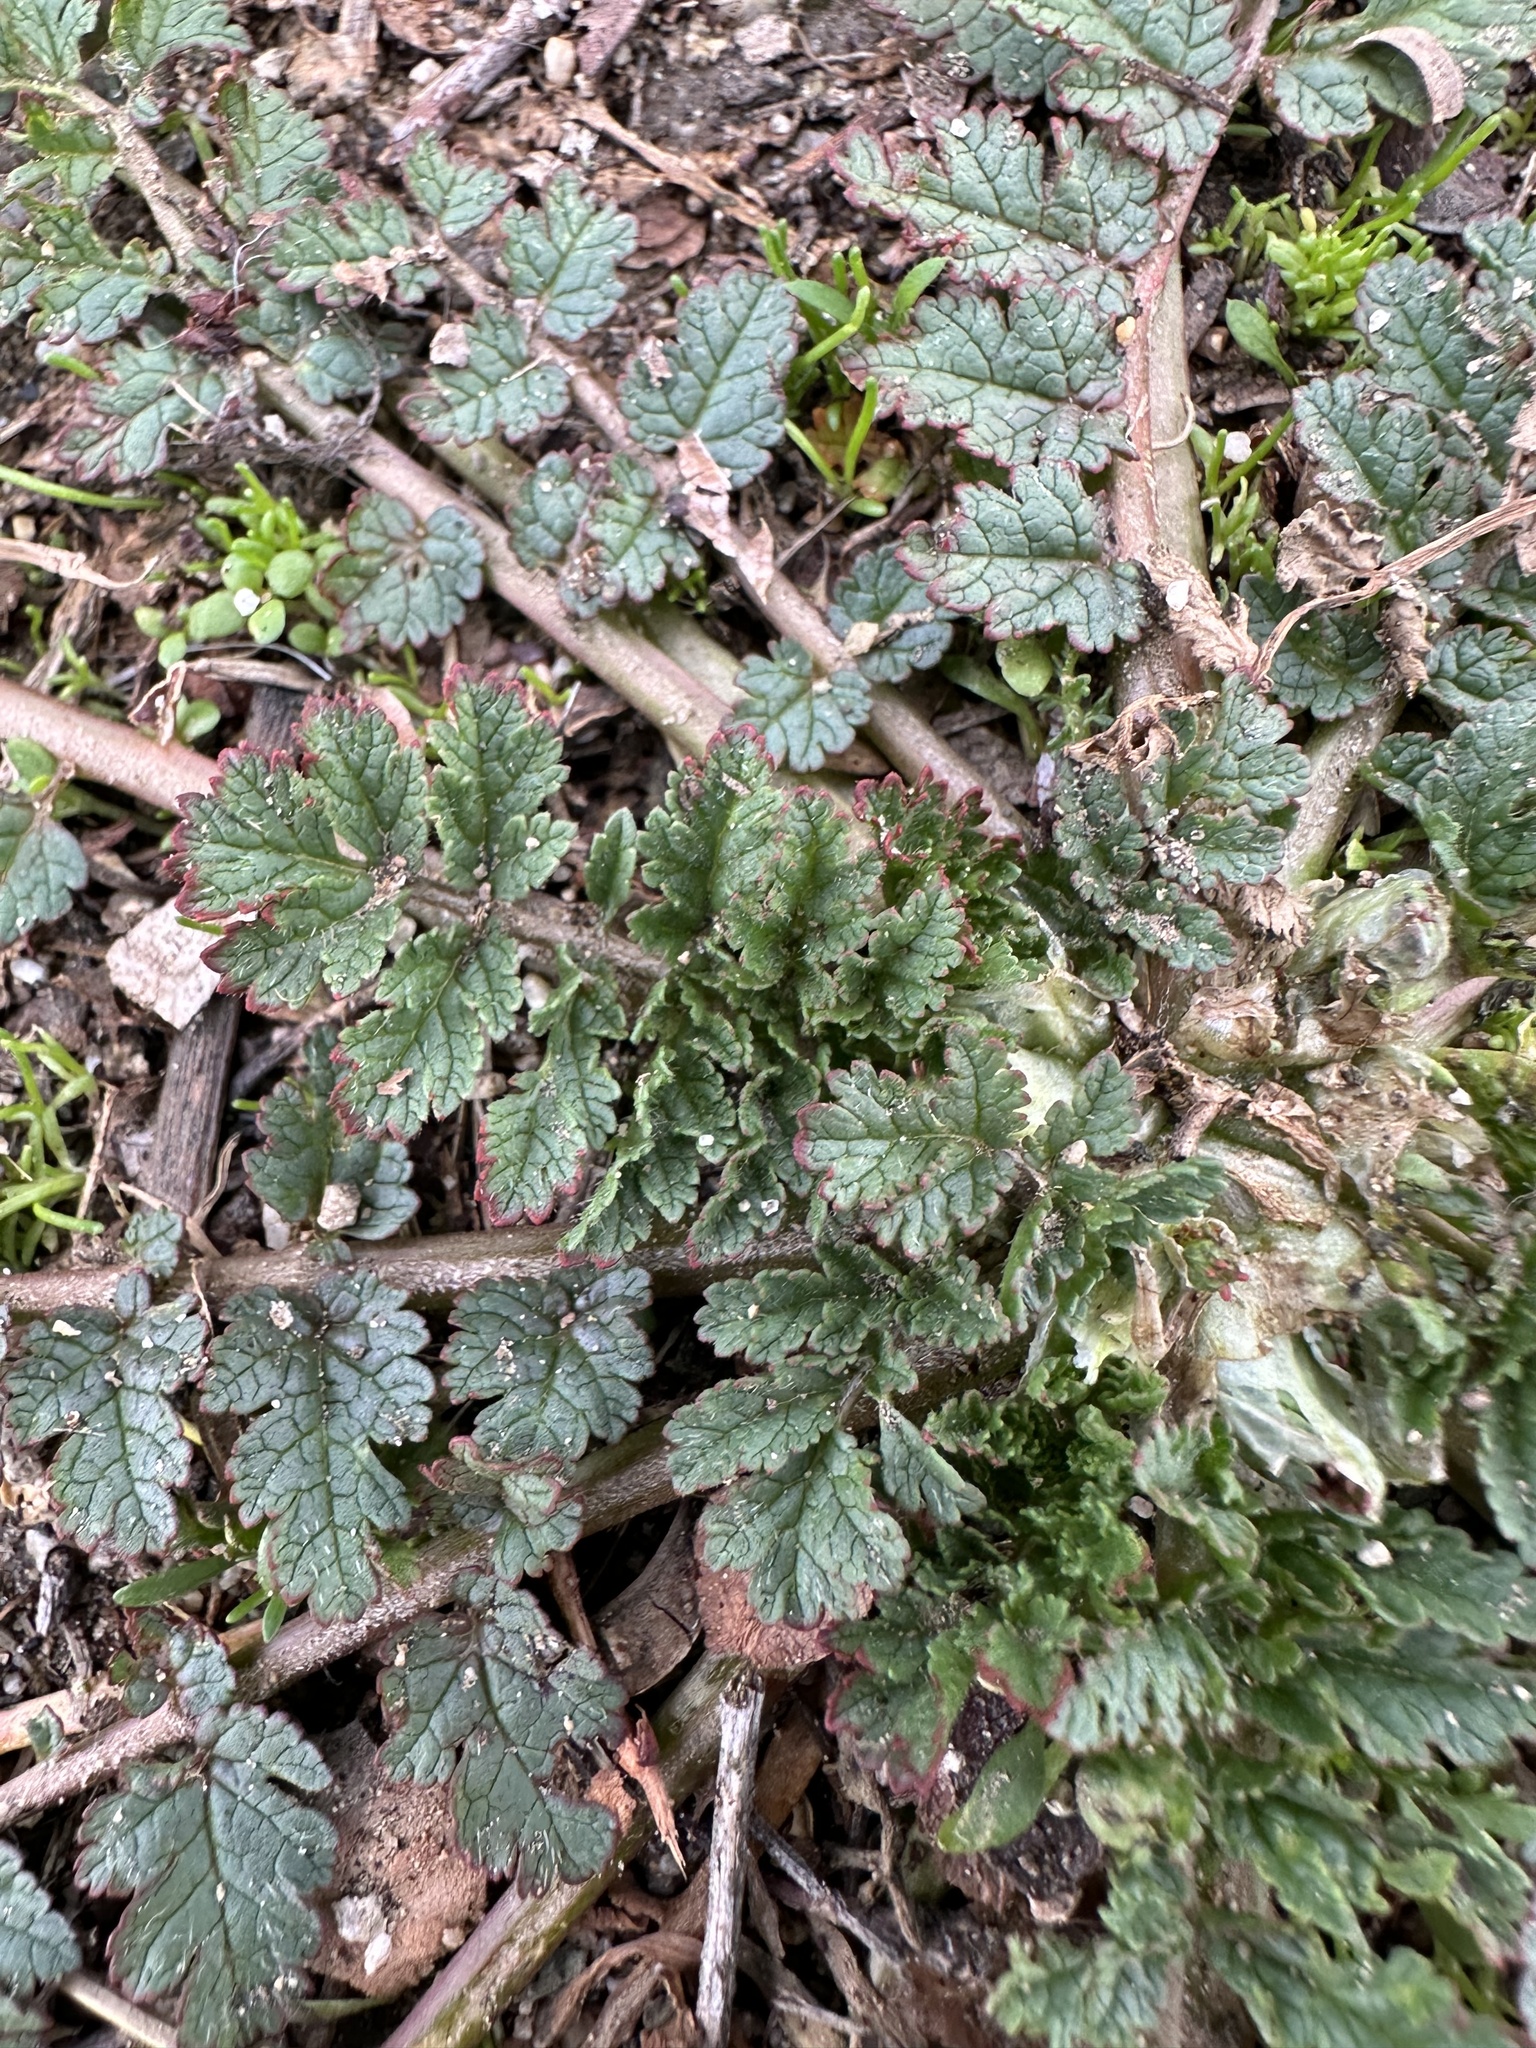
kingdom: Plantae
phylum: Tracheophyta
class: Magnoliopsida
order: Geraniales
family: Geraniaceae
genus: Erodium
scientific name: Erodium moschatum
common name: Musk stork's-bill
